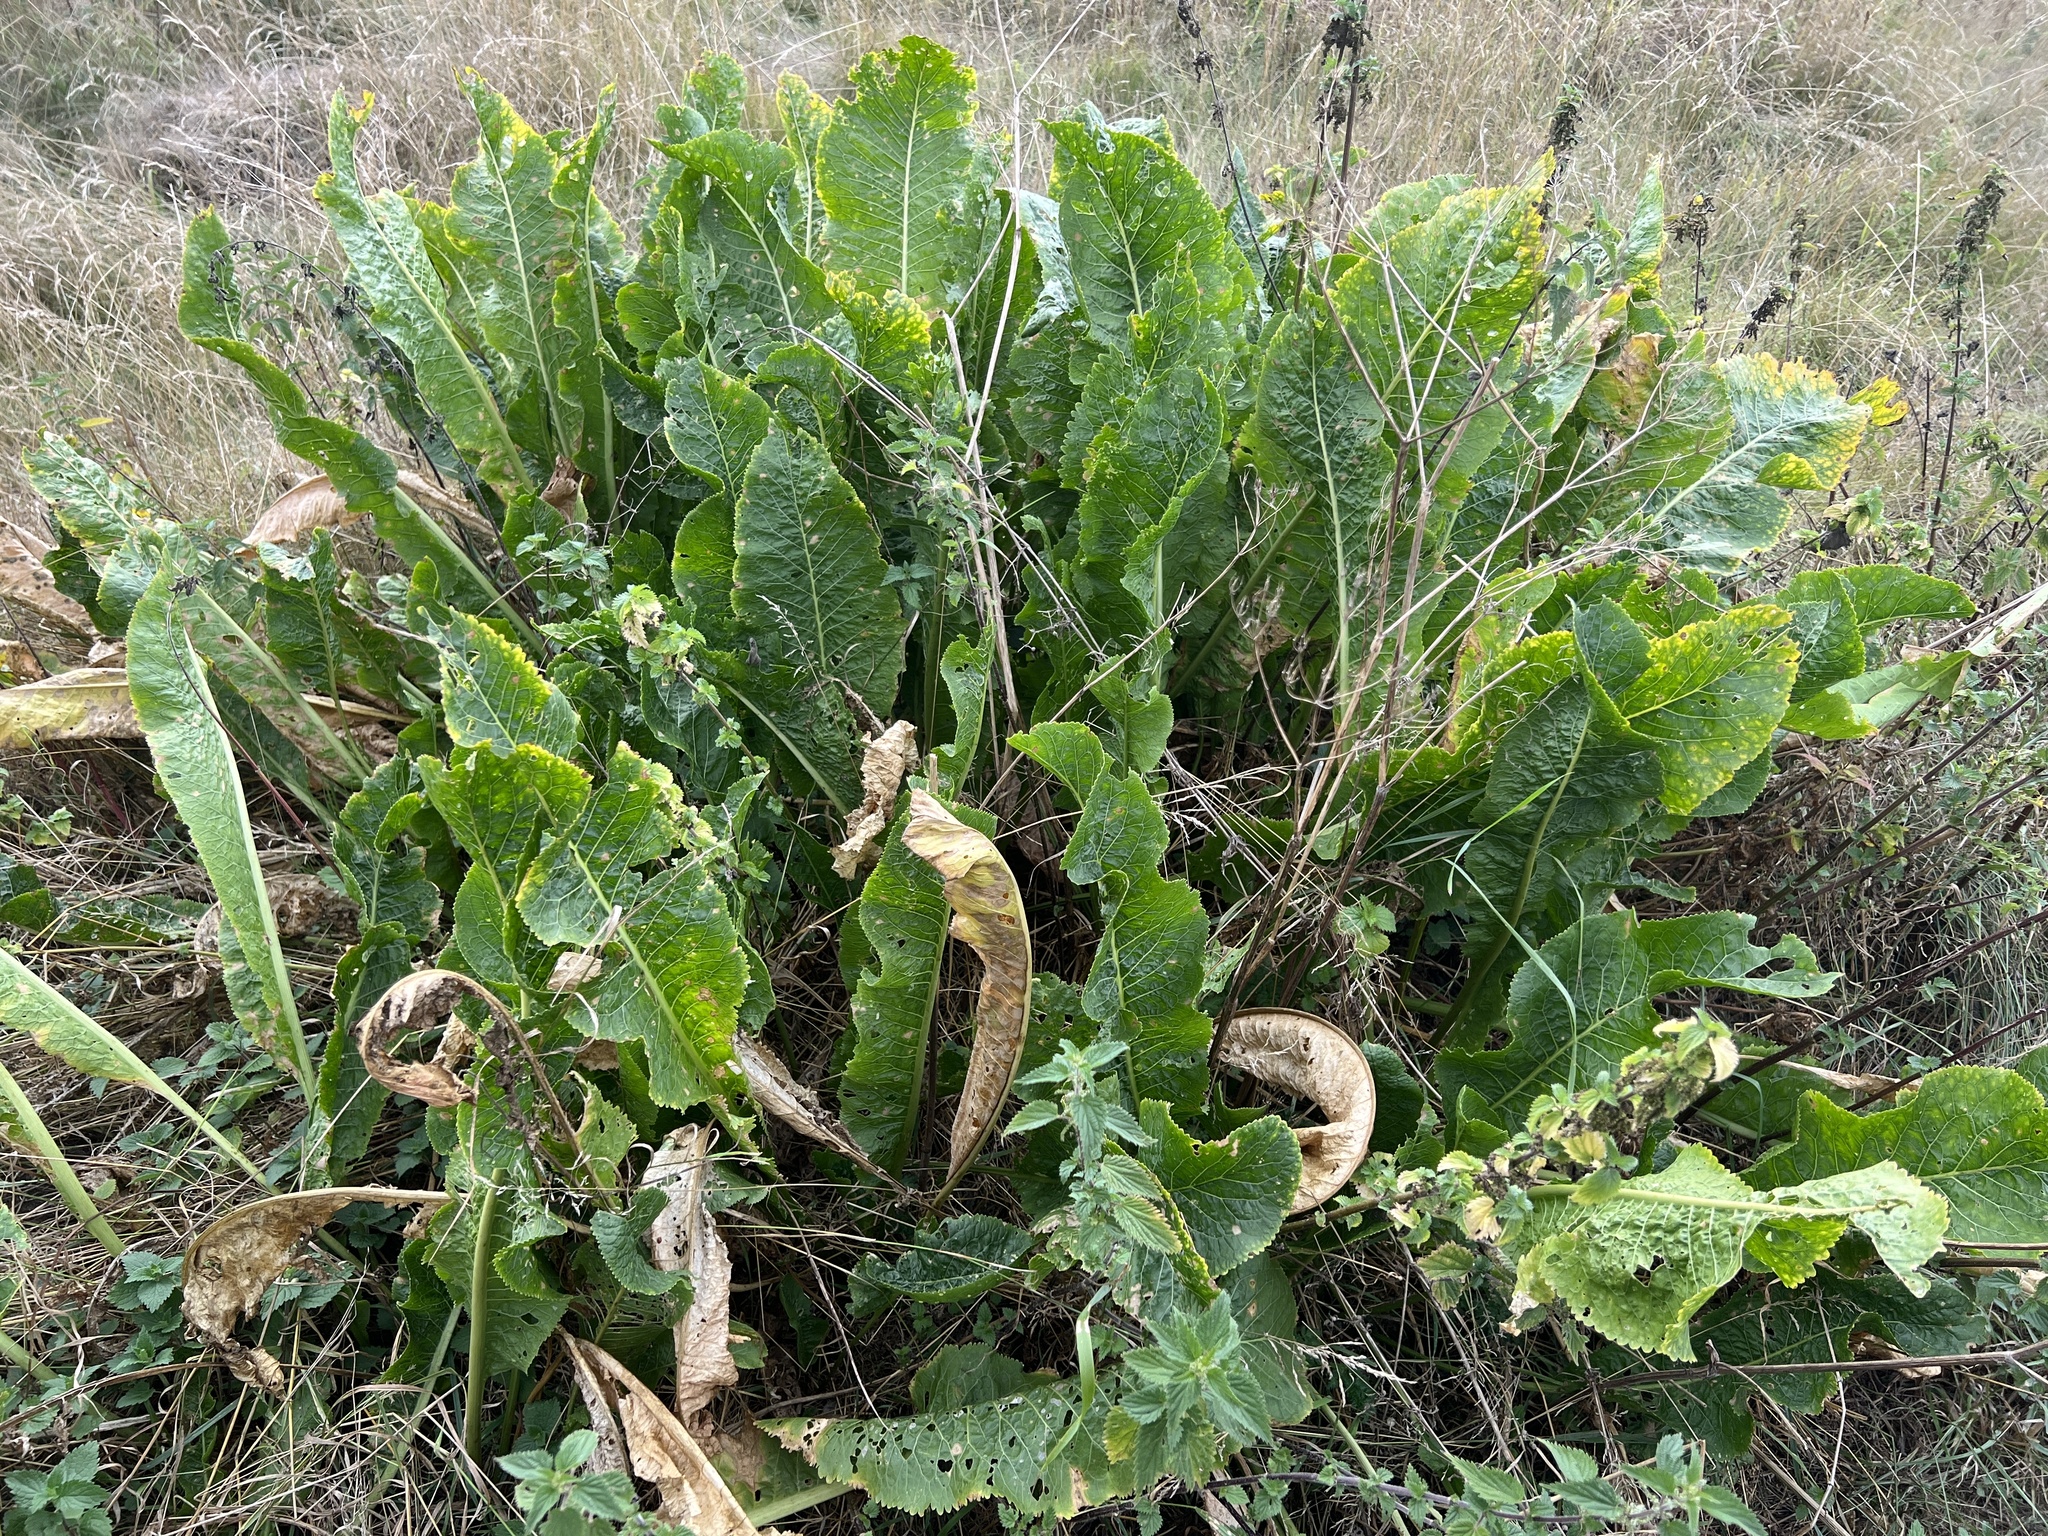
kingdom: Plantae
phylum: Tracheophyta
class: Magnoliopsida
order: Brassicales
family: Brassicaceae
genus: Armoracia
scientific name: Armoracia rusticana
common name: Horseradish
